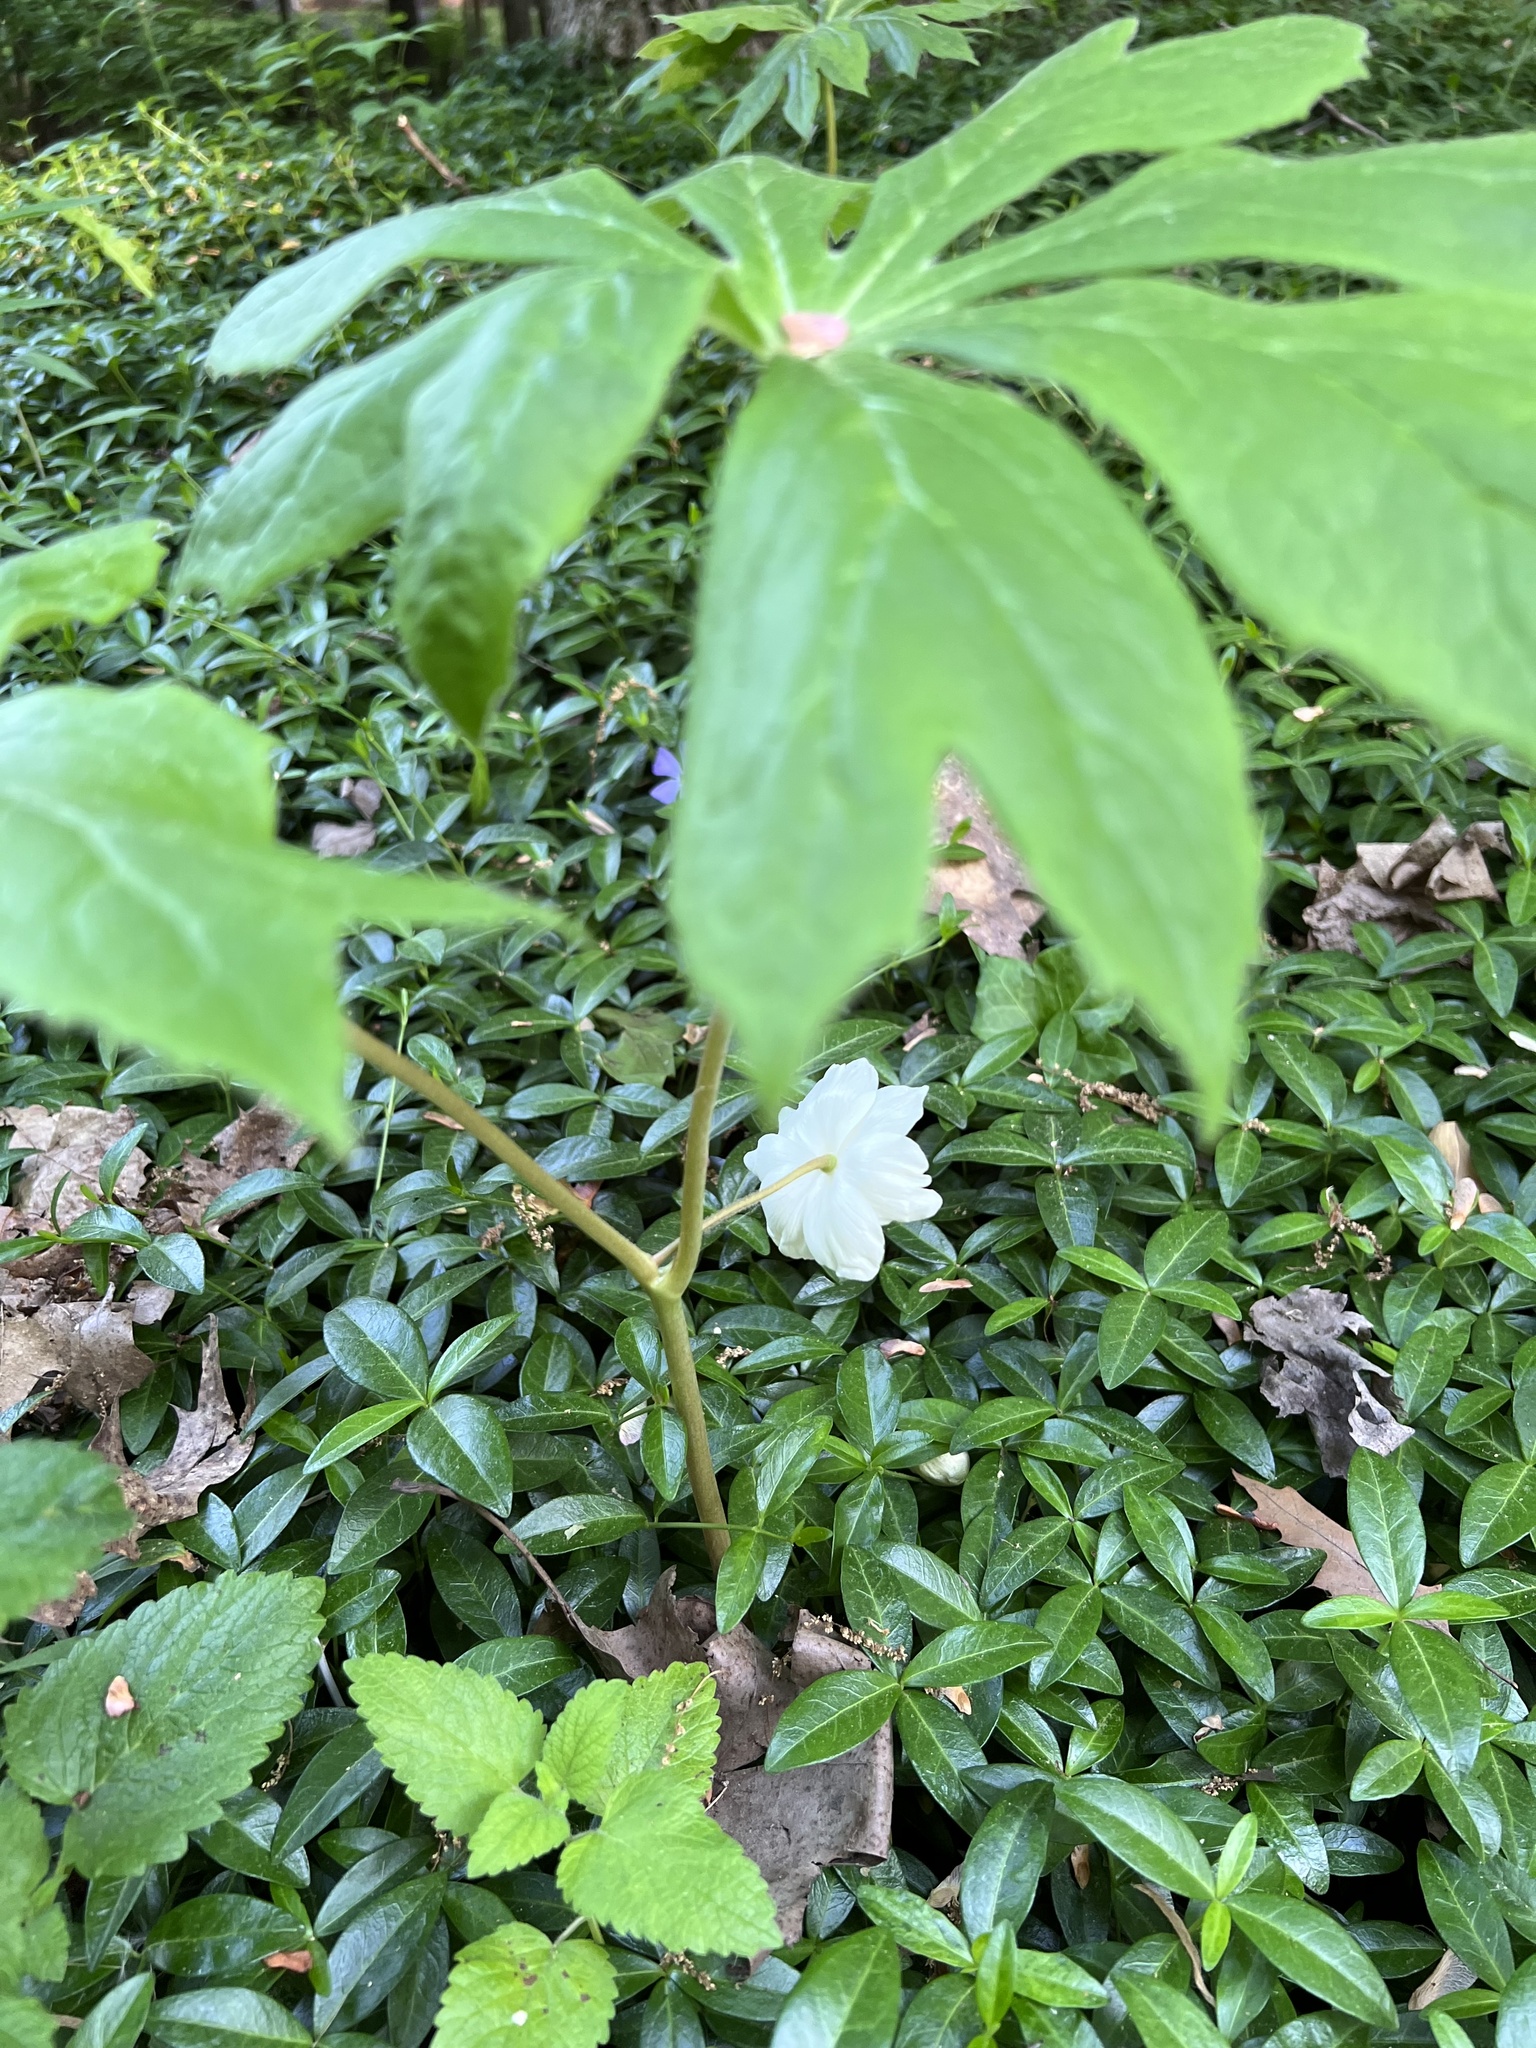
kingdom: Plantae
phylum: Tracheophyta
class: Magnoliopsida
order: Ranunculales
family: Berberidaceae
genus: Podophyllum
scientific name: Podophyllum peltatum
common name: Wild mandrake
